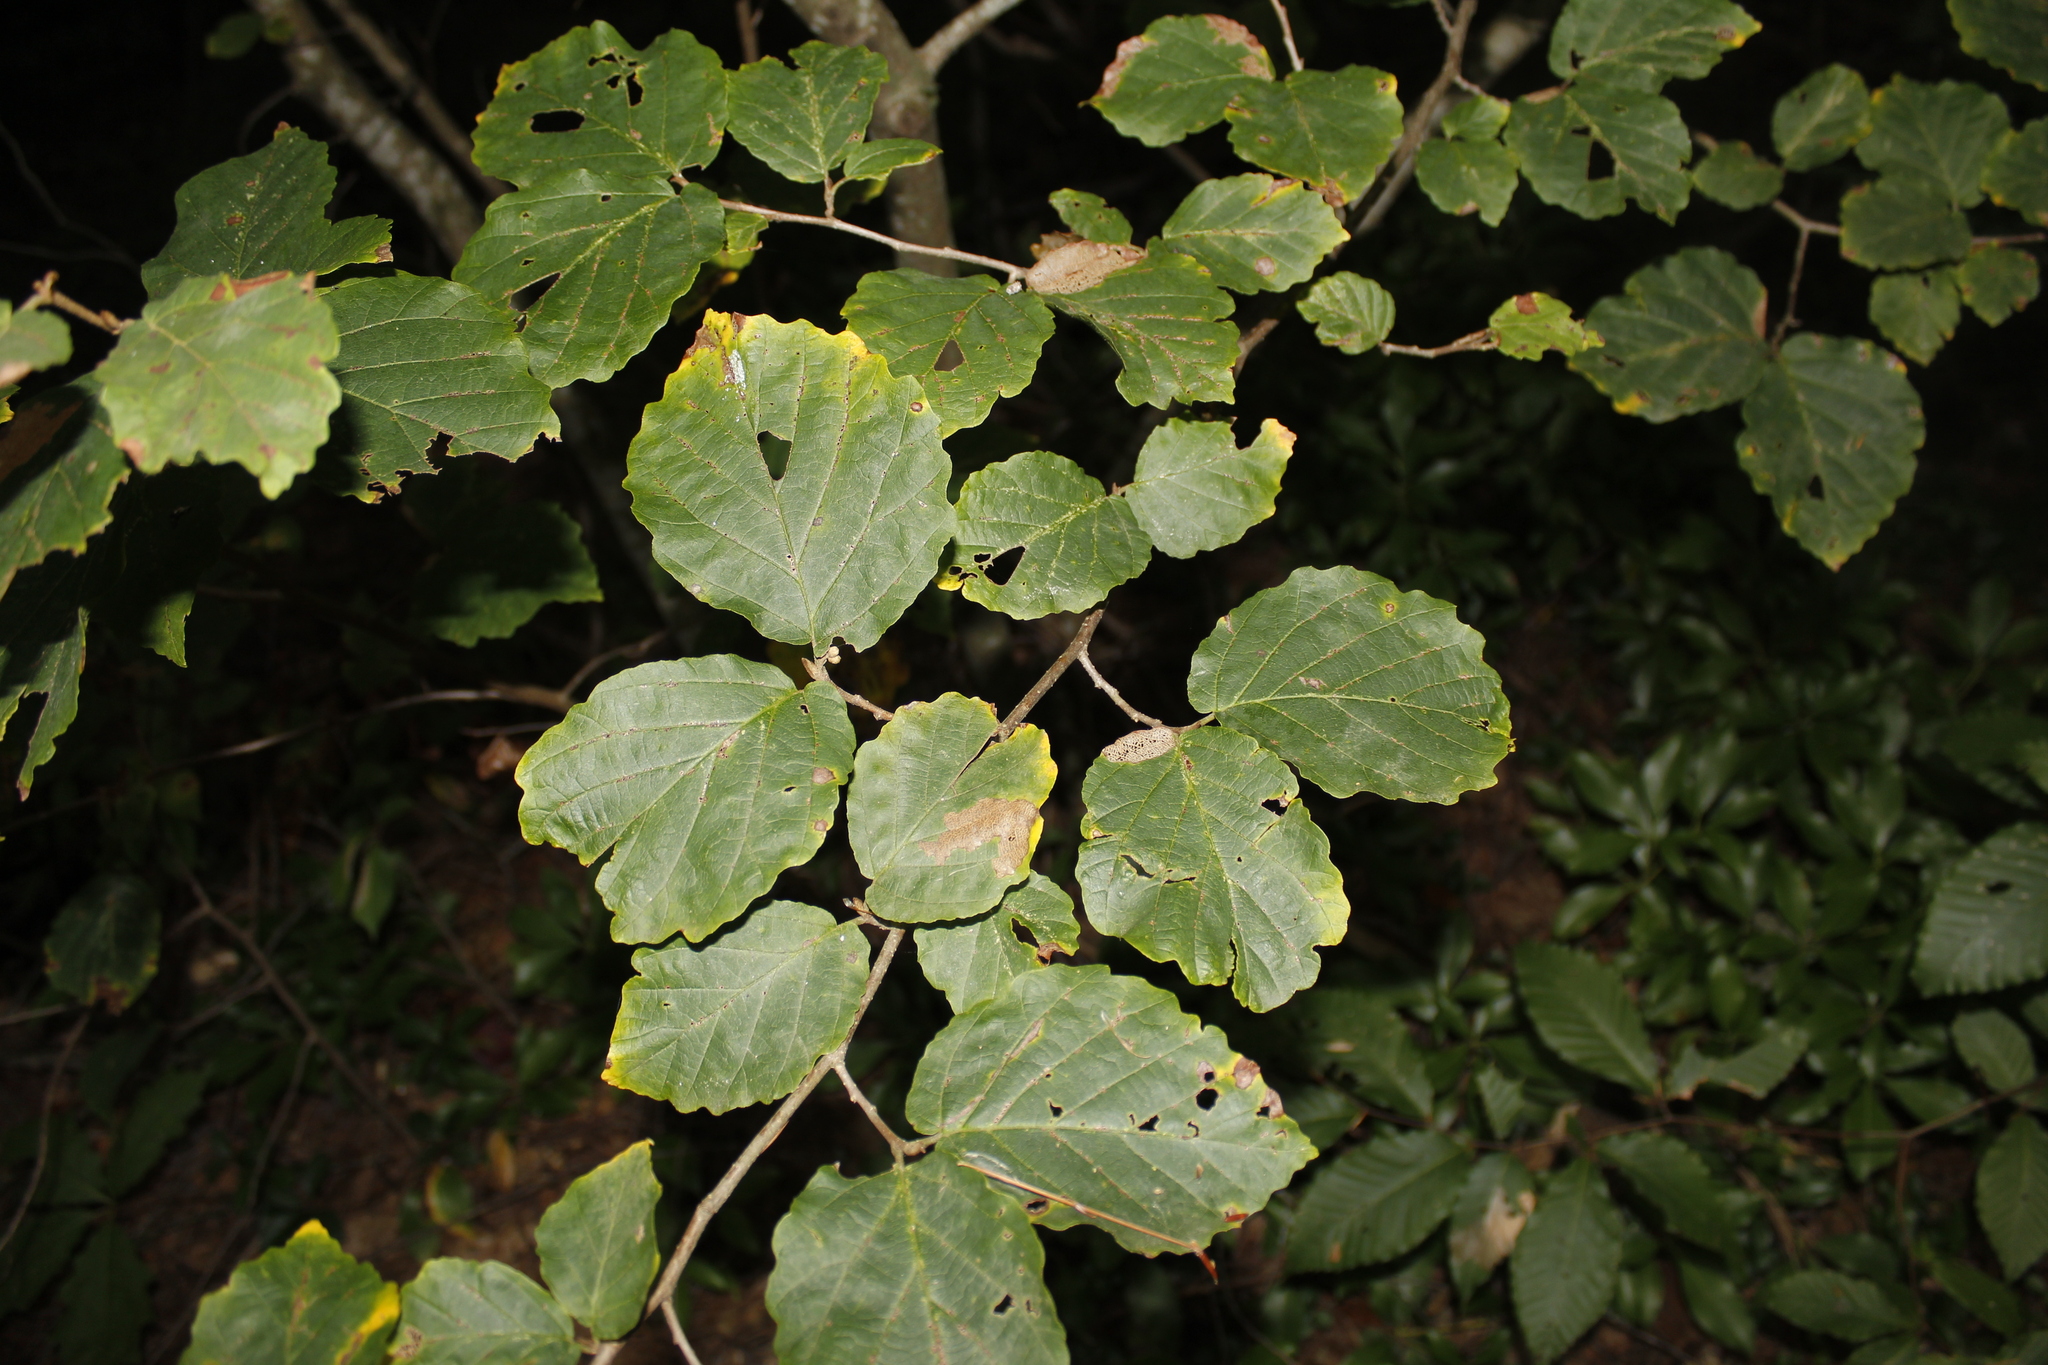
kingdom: Plantae
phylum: Tracheophyta
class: Magnoliopsida
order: Saxifragales
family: Hamamelidaceae
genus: Hamamelis
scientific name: Hamamelis virginiana
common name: Witch-hazel
